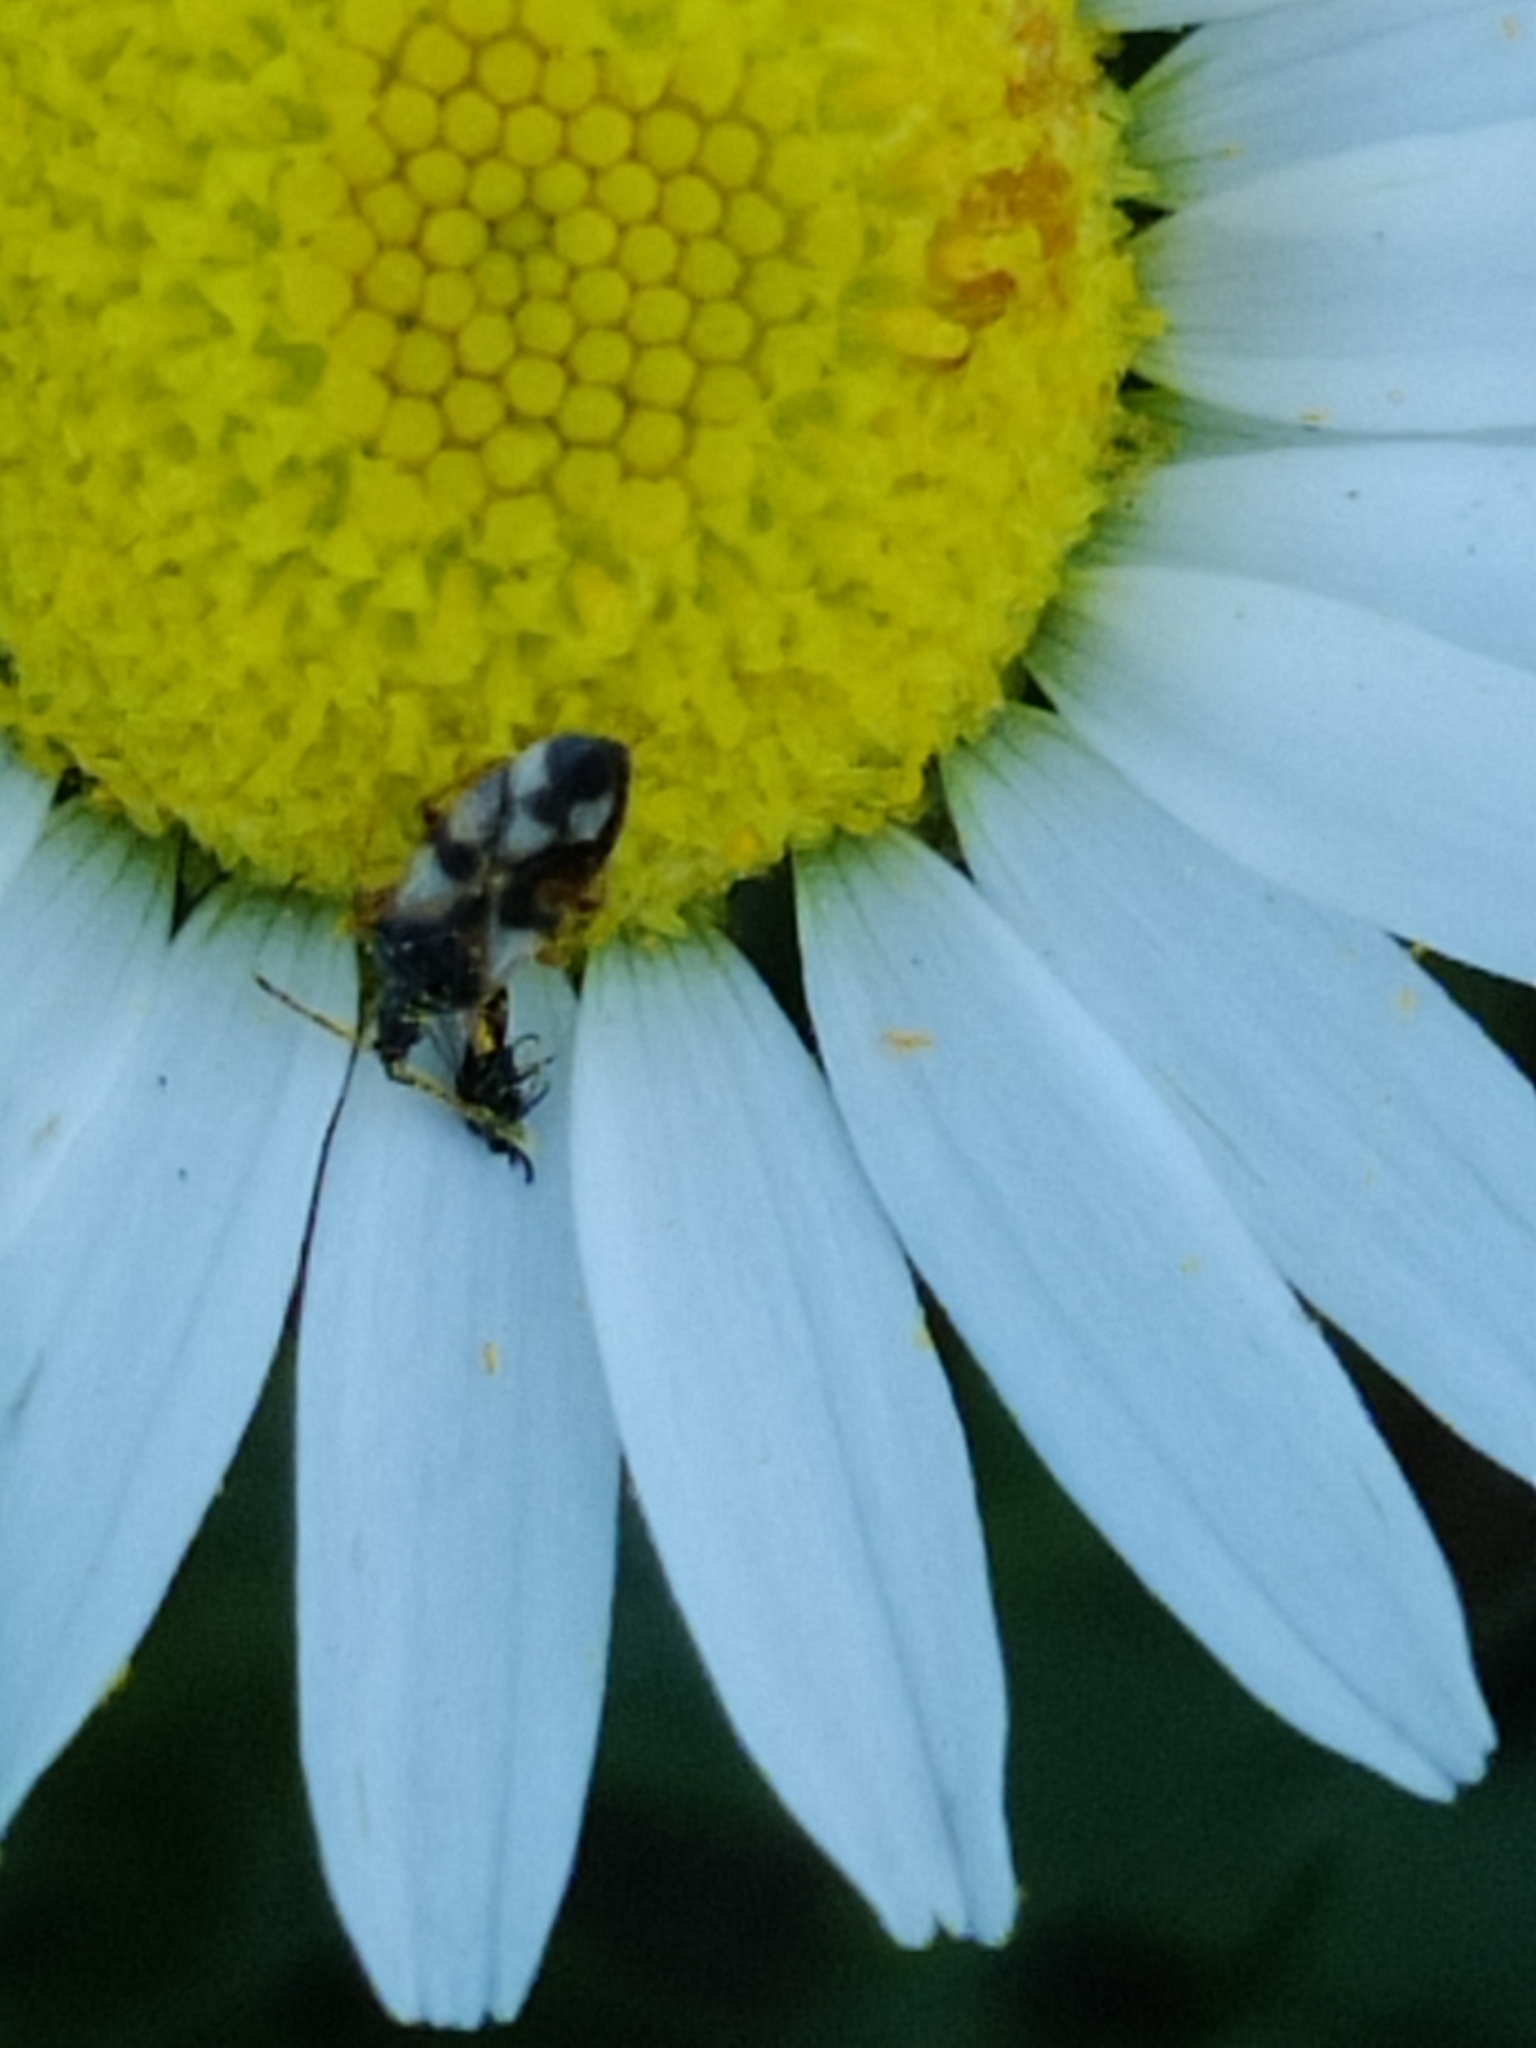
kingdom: Animalia
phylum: Arthropoda
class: Insecta
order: Hemiptera
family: Anthocoridae
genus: Anthocoris
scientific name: Anthocoris nemorum
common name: Minute pirate bug
